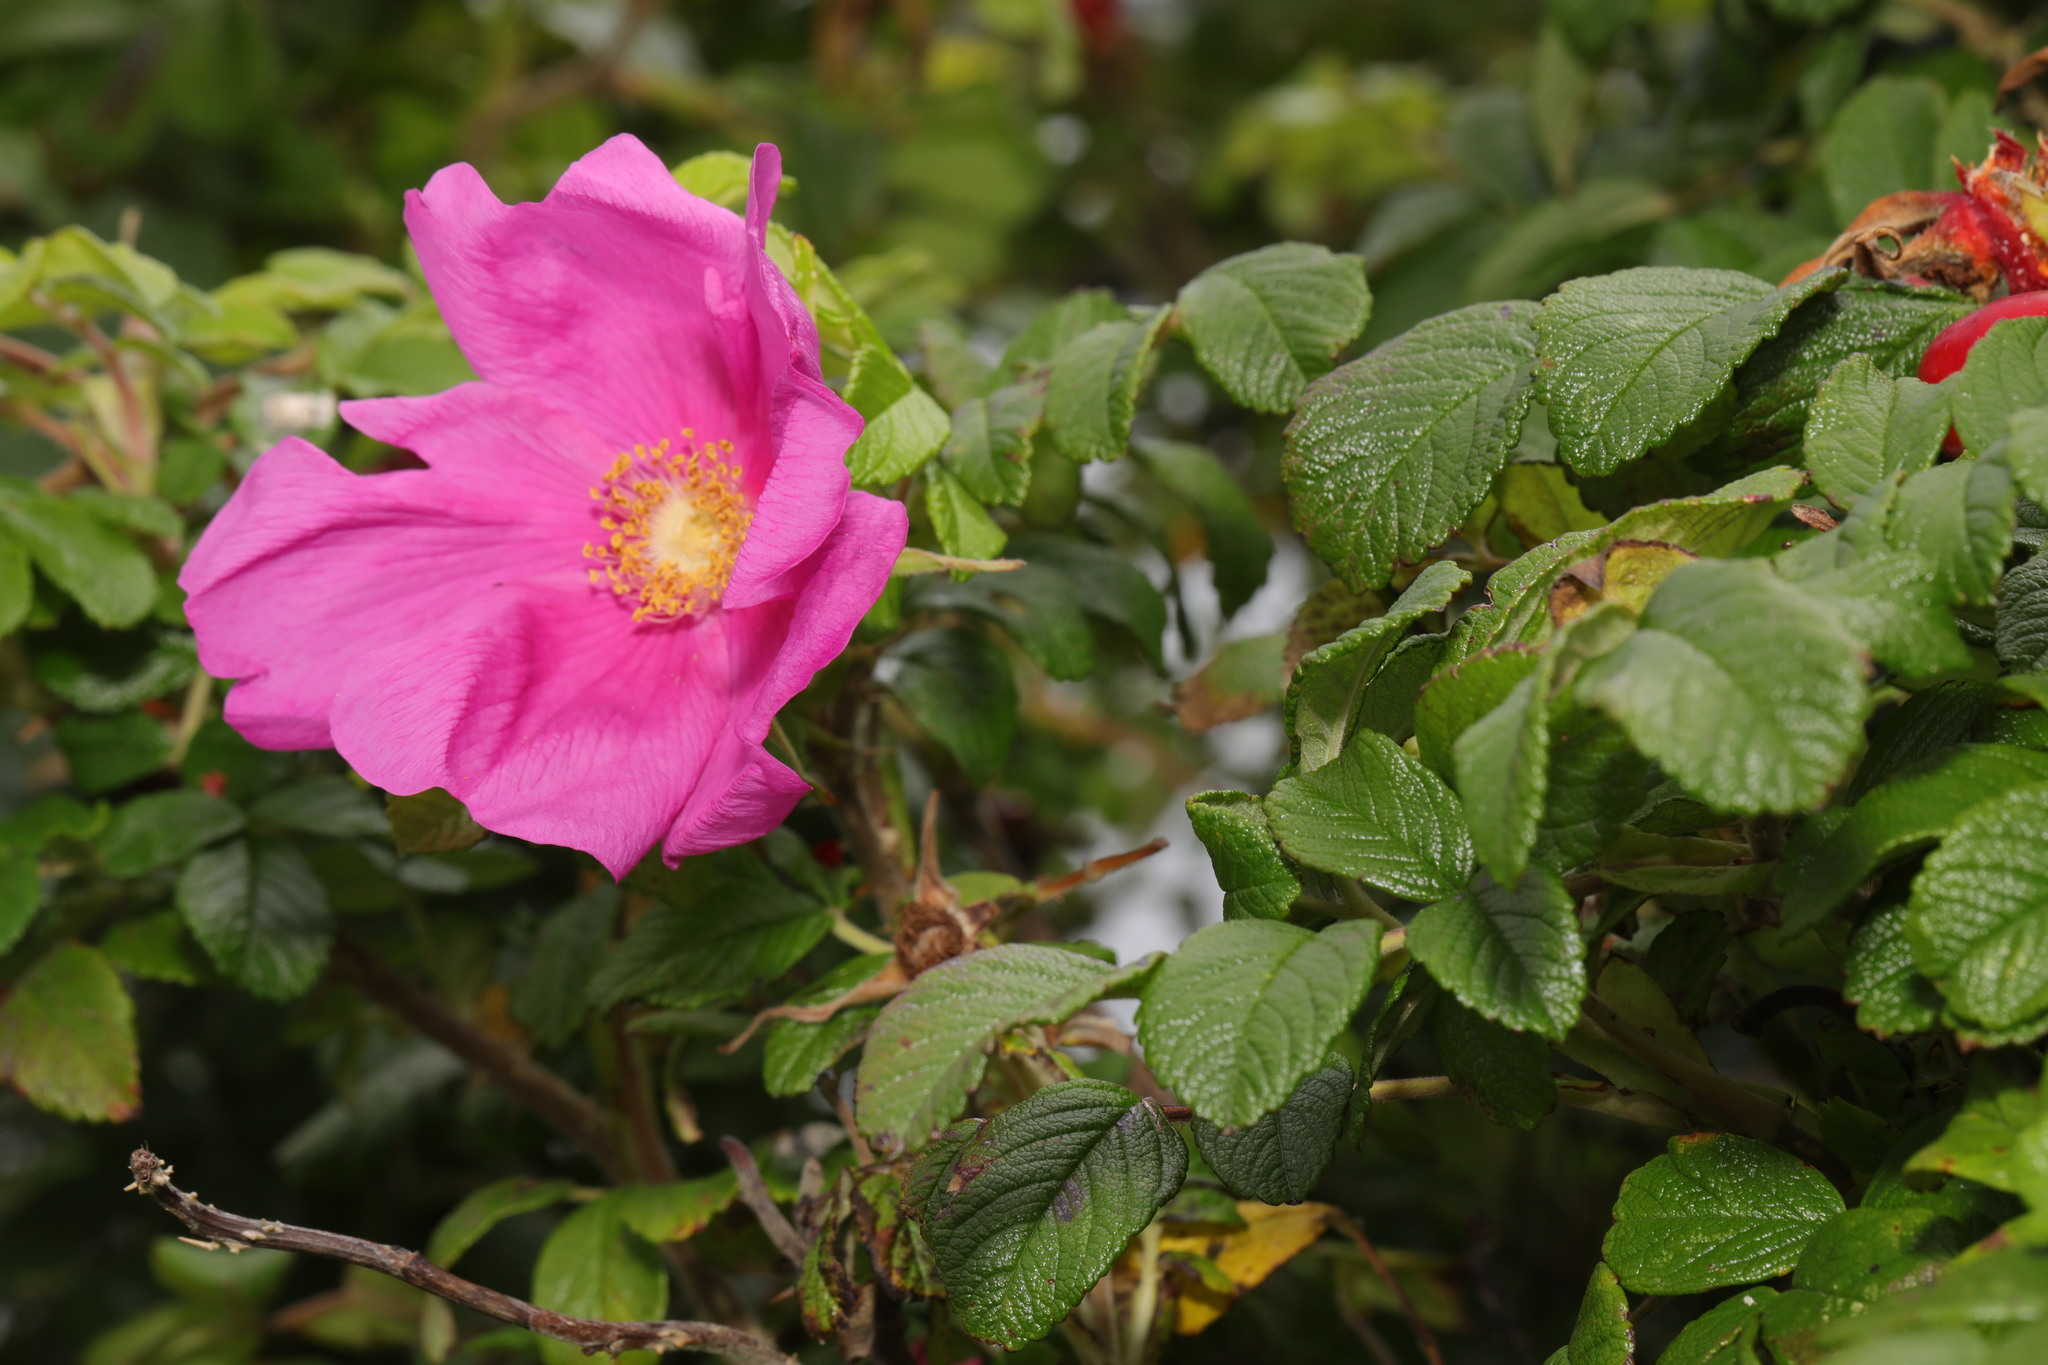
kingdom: Plantae
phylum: Tracheophyta
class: Magnoliopsida
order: Rosales
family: Rosaceae
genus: Rosa
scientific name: Rosa rugosa
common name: Japanese rose
